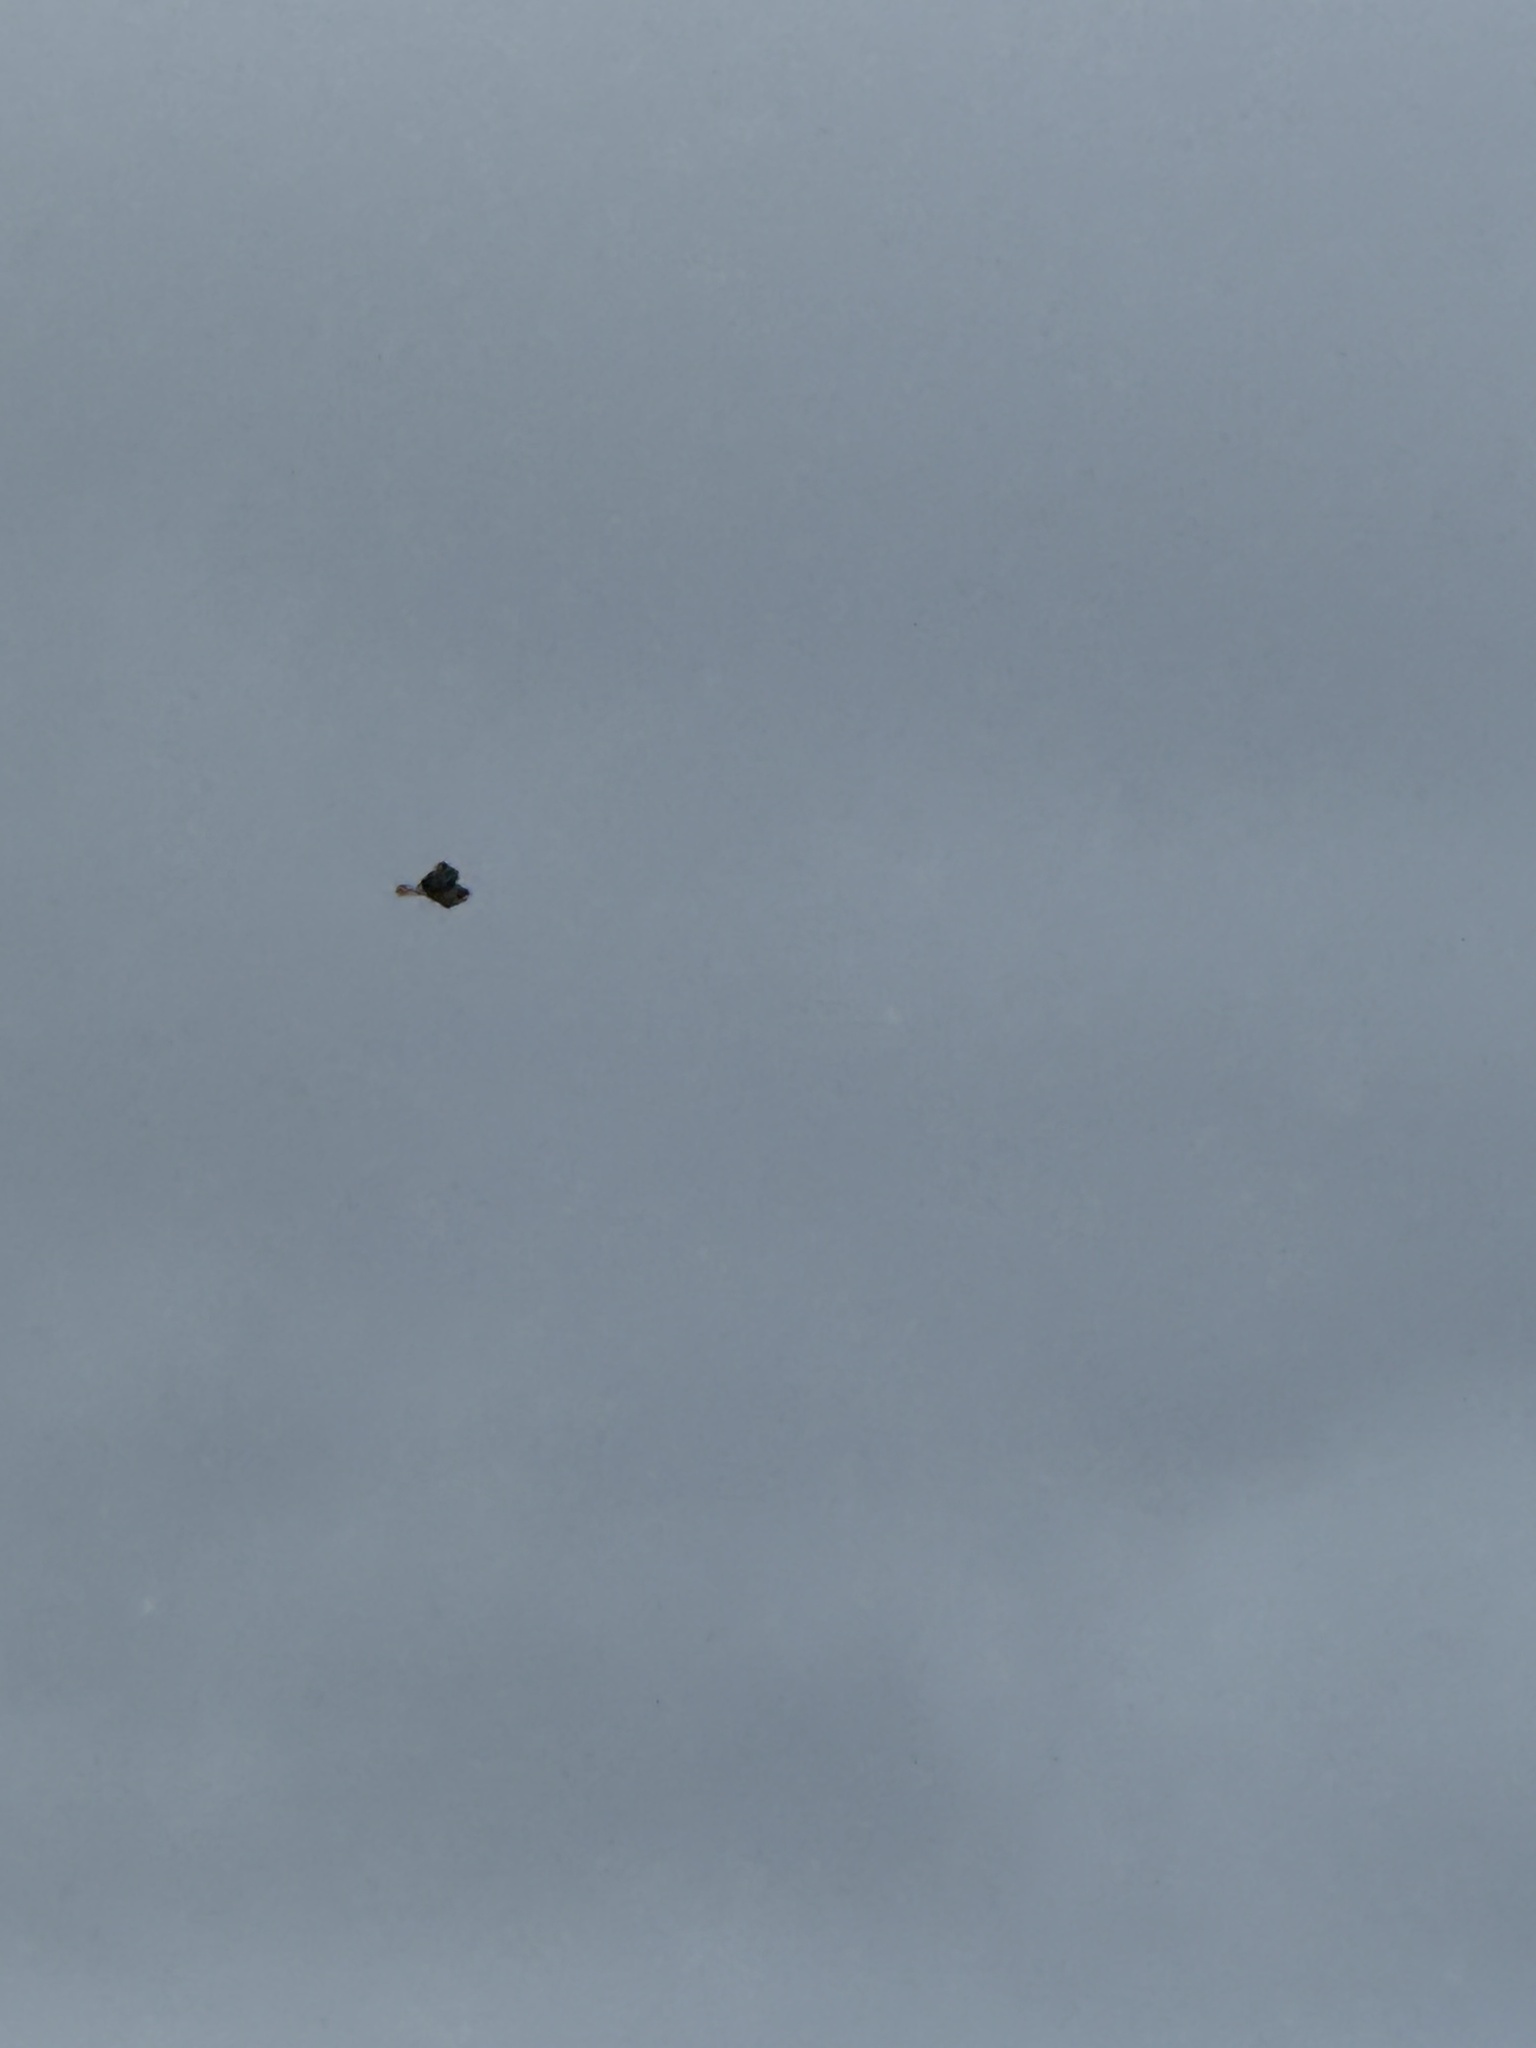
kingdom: Animalia
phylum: Chordata
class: Aves
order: Accipitriformes
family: Accipitridae
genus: Buteo
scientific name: Buteo jamaicensis
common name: Red-tailed hawk
